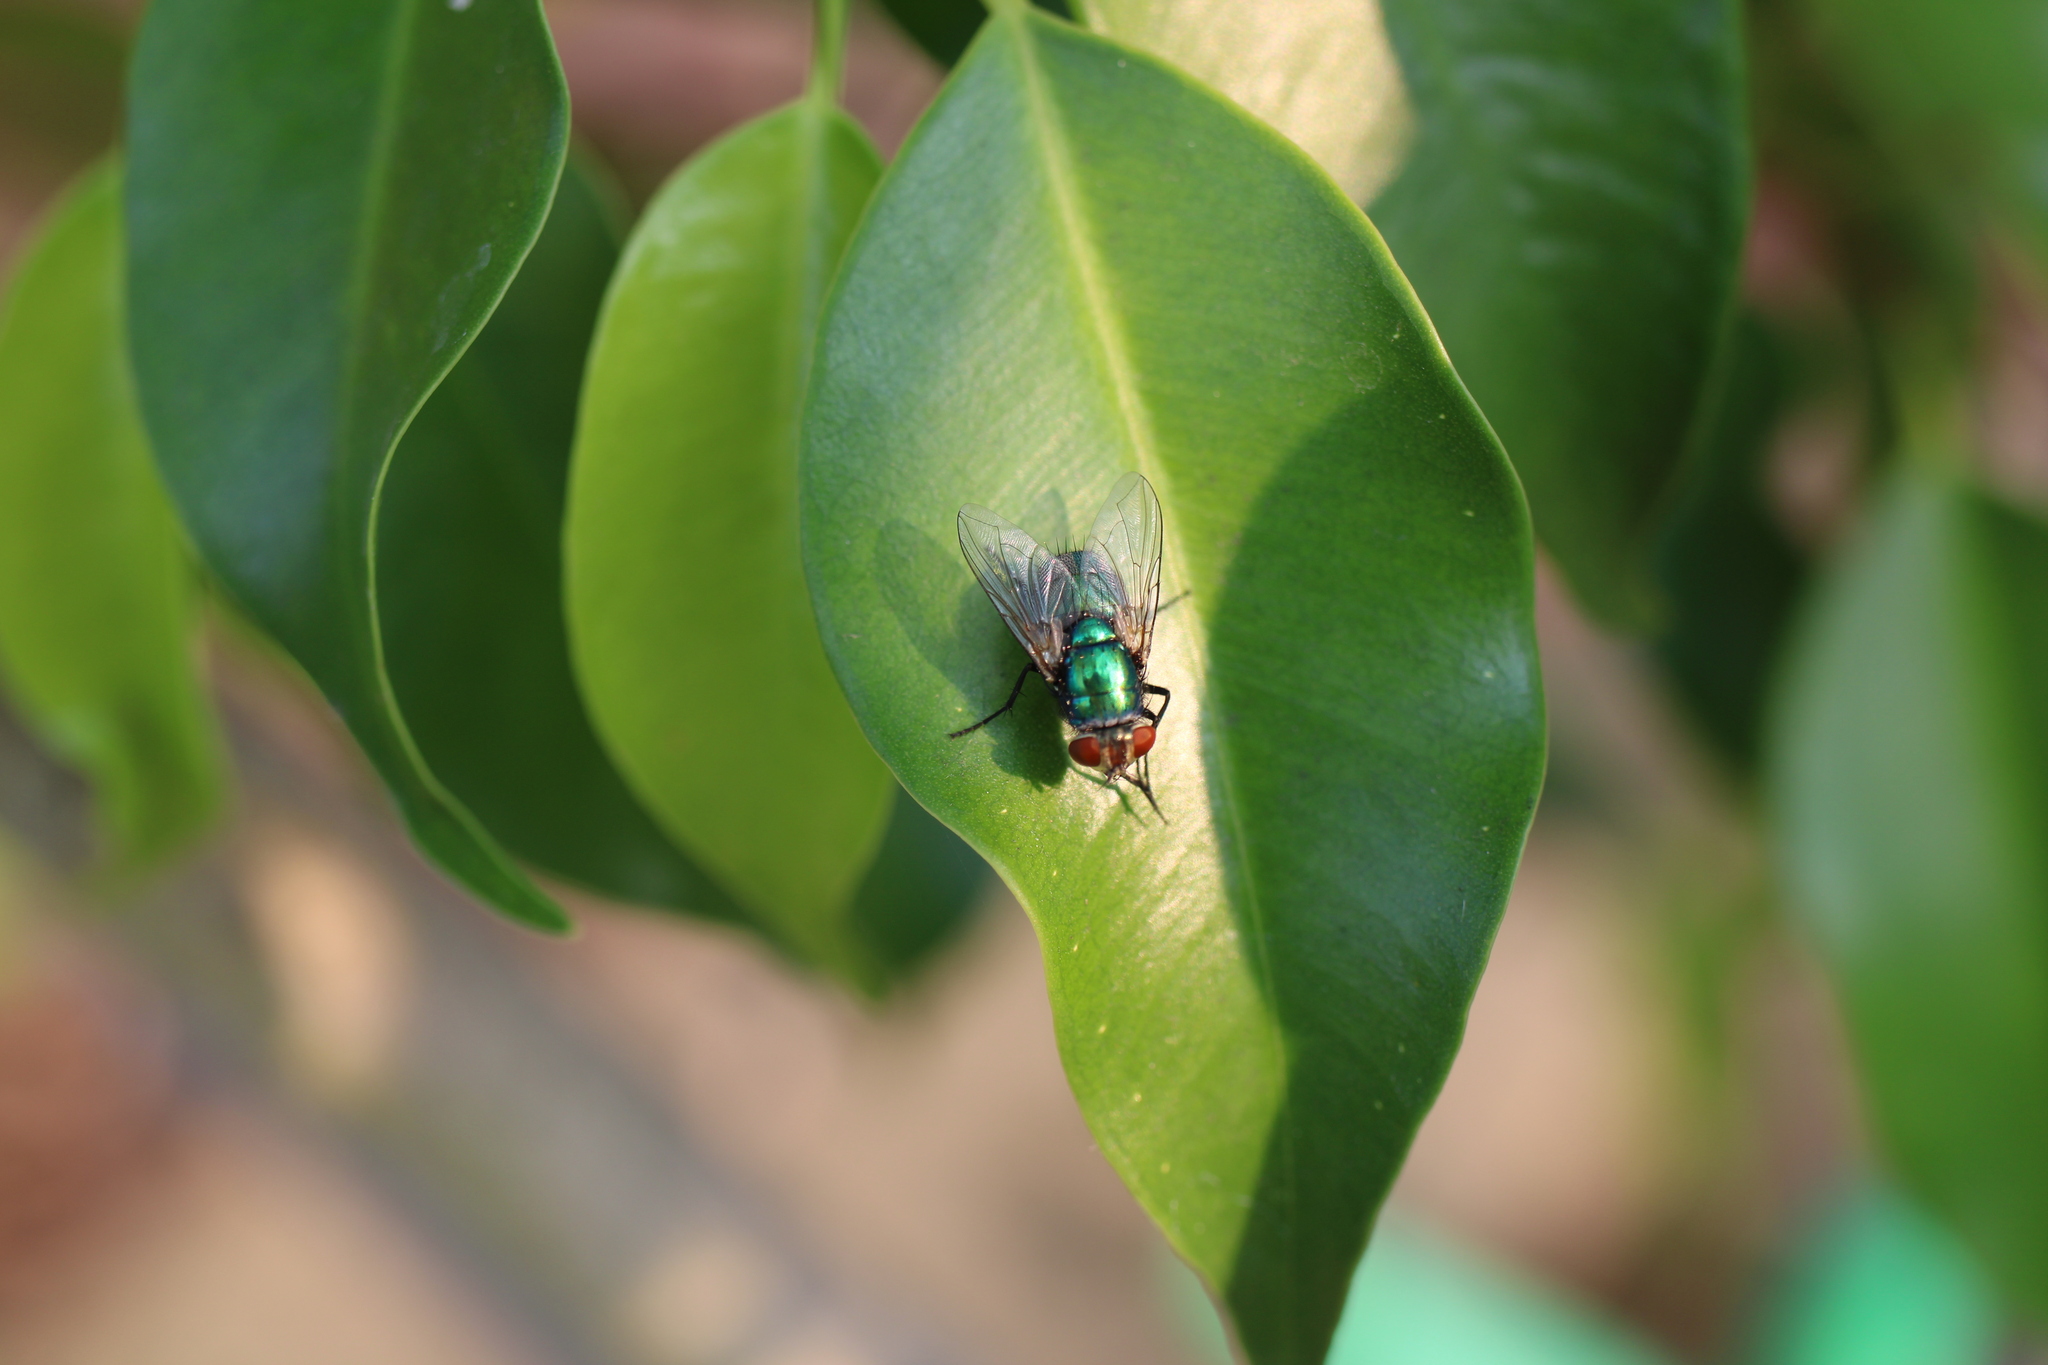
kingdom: Animalia
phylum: Arthropoda
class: Insecta
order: Diptera
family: Calliphoridae
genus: Lucilia
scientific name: Lucilia sericata
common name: Blow fly
